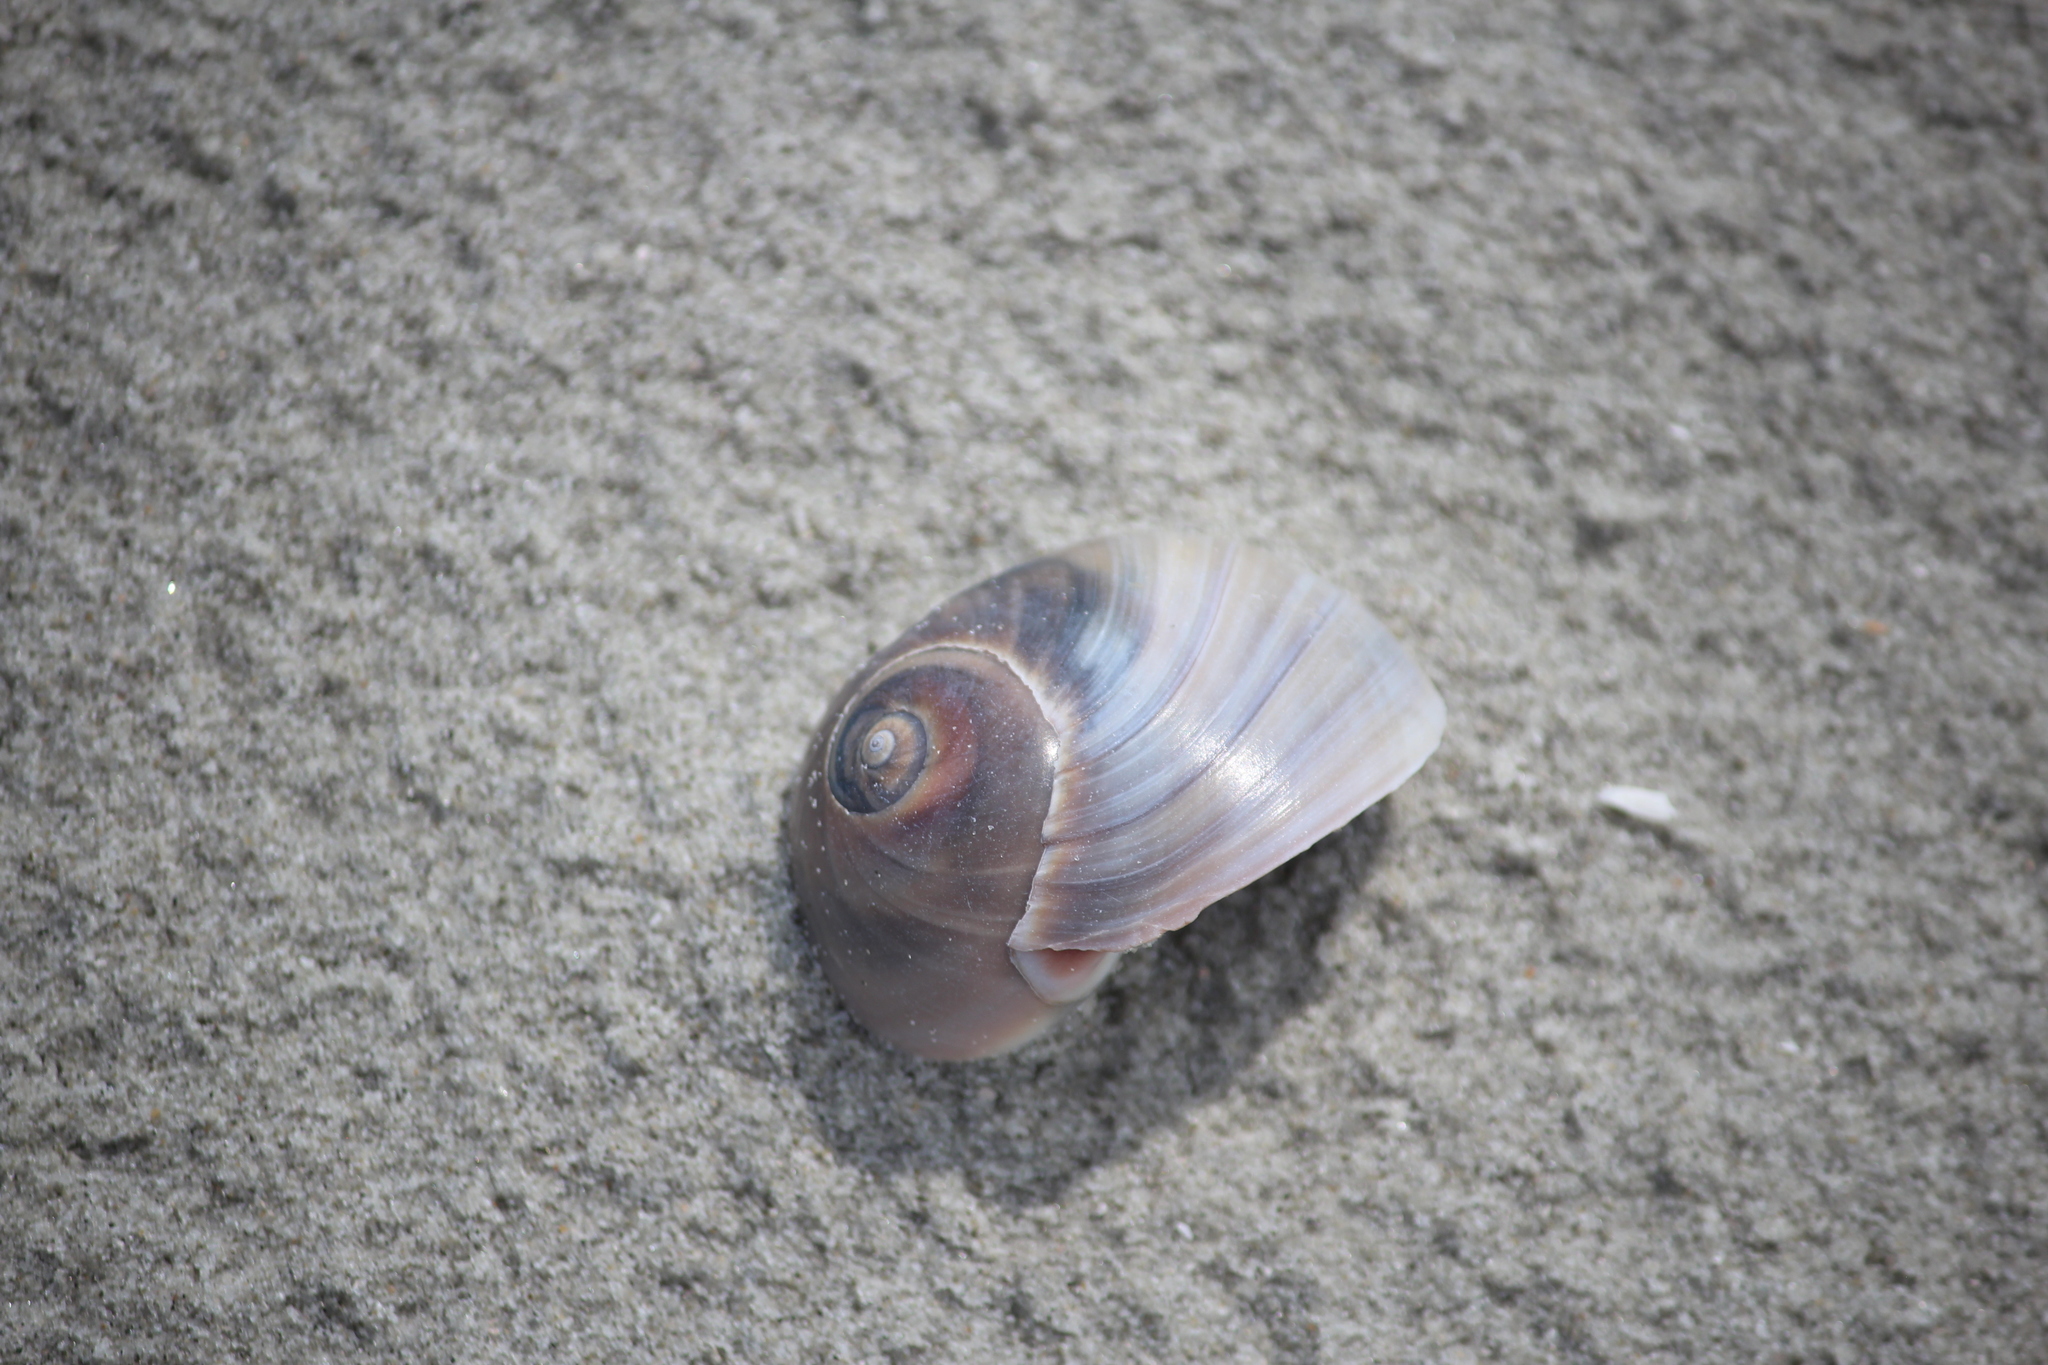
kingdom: Animalia
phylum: Mollusca
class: Gastropoda
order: Littorinimorpha
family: Naticidae
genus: Neverita
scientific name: Neverita duplicata
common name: Lobed moonsnail
